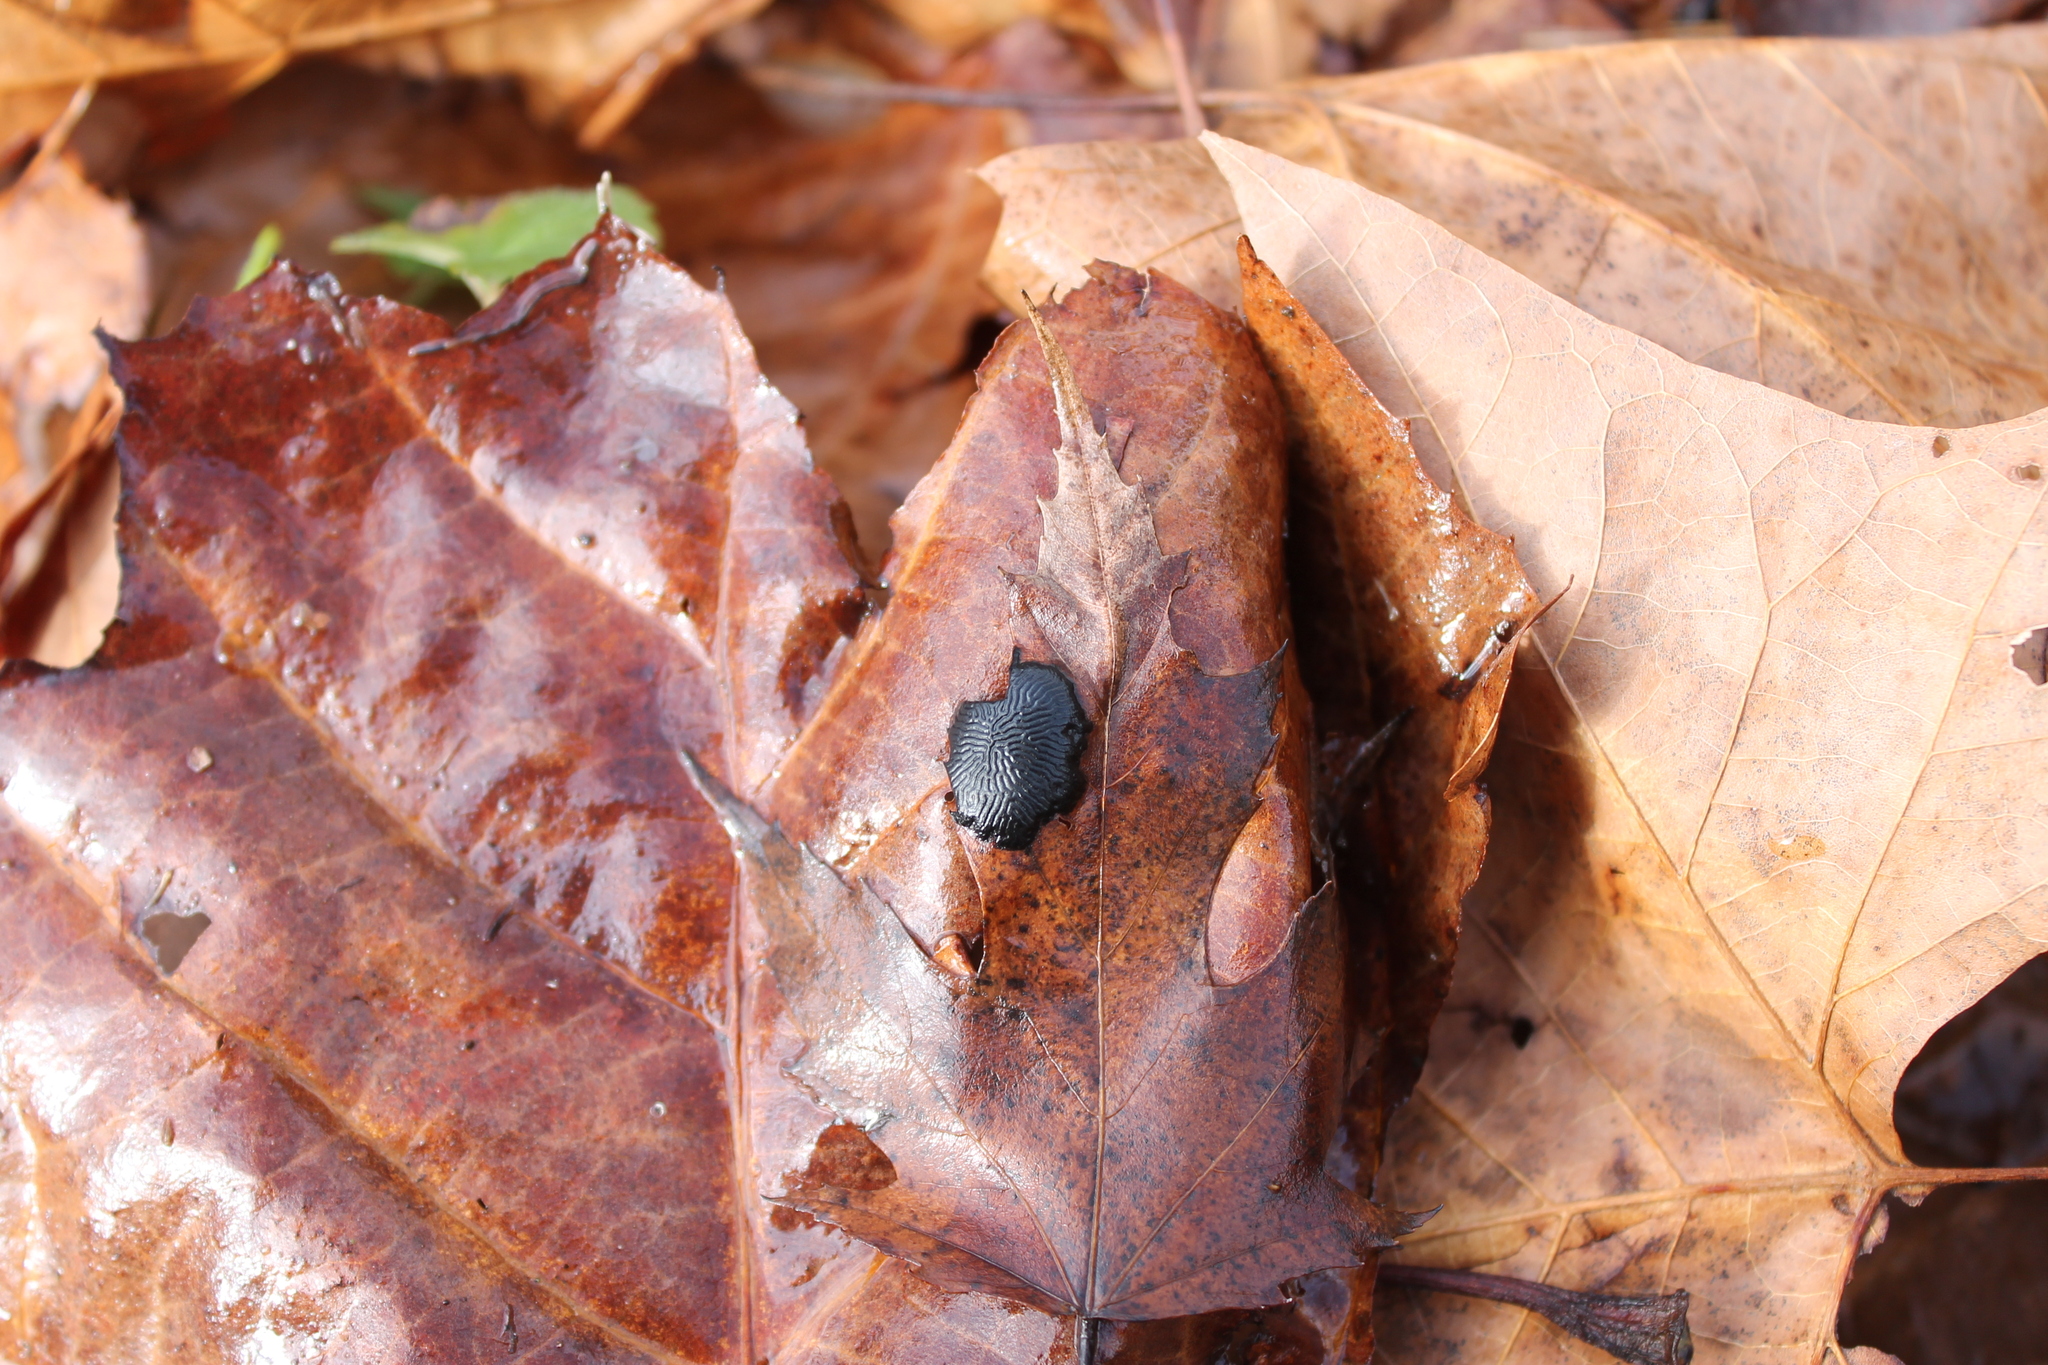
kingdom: Fungi
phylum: Ascomycota
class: Leotiomycetes
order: Rhytismatales
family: Rhytismataceae
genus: Rhytisma
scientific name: Rhytisma americanum
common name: American tar spot
